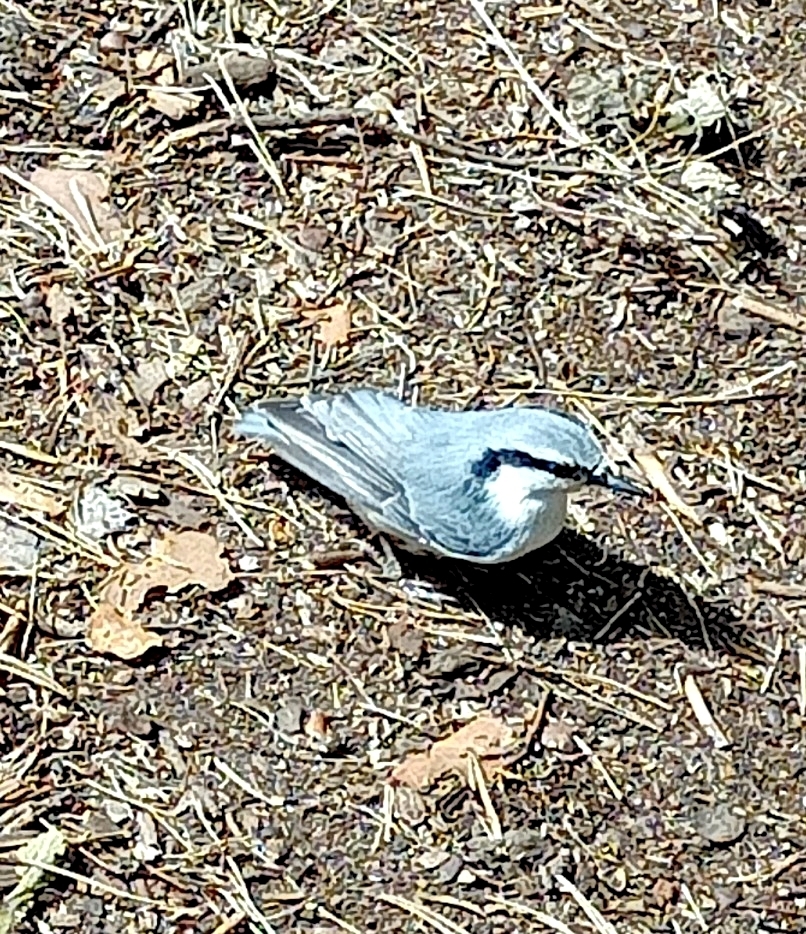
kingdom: Animalia
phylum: Chordata
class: Aves
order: Passeriformes
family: Sittidae
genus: Sitta
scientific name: Sitta europaea
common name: Eurasian nuthatch
